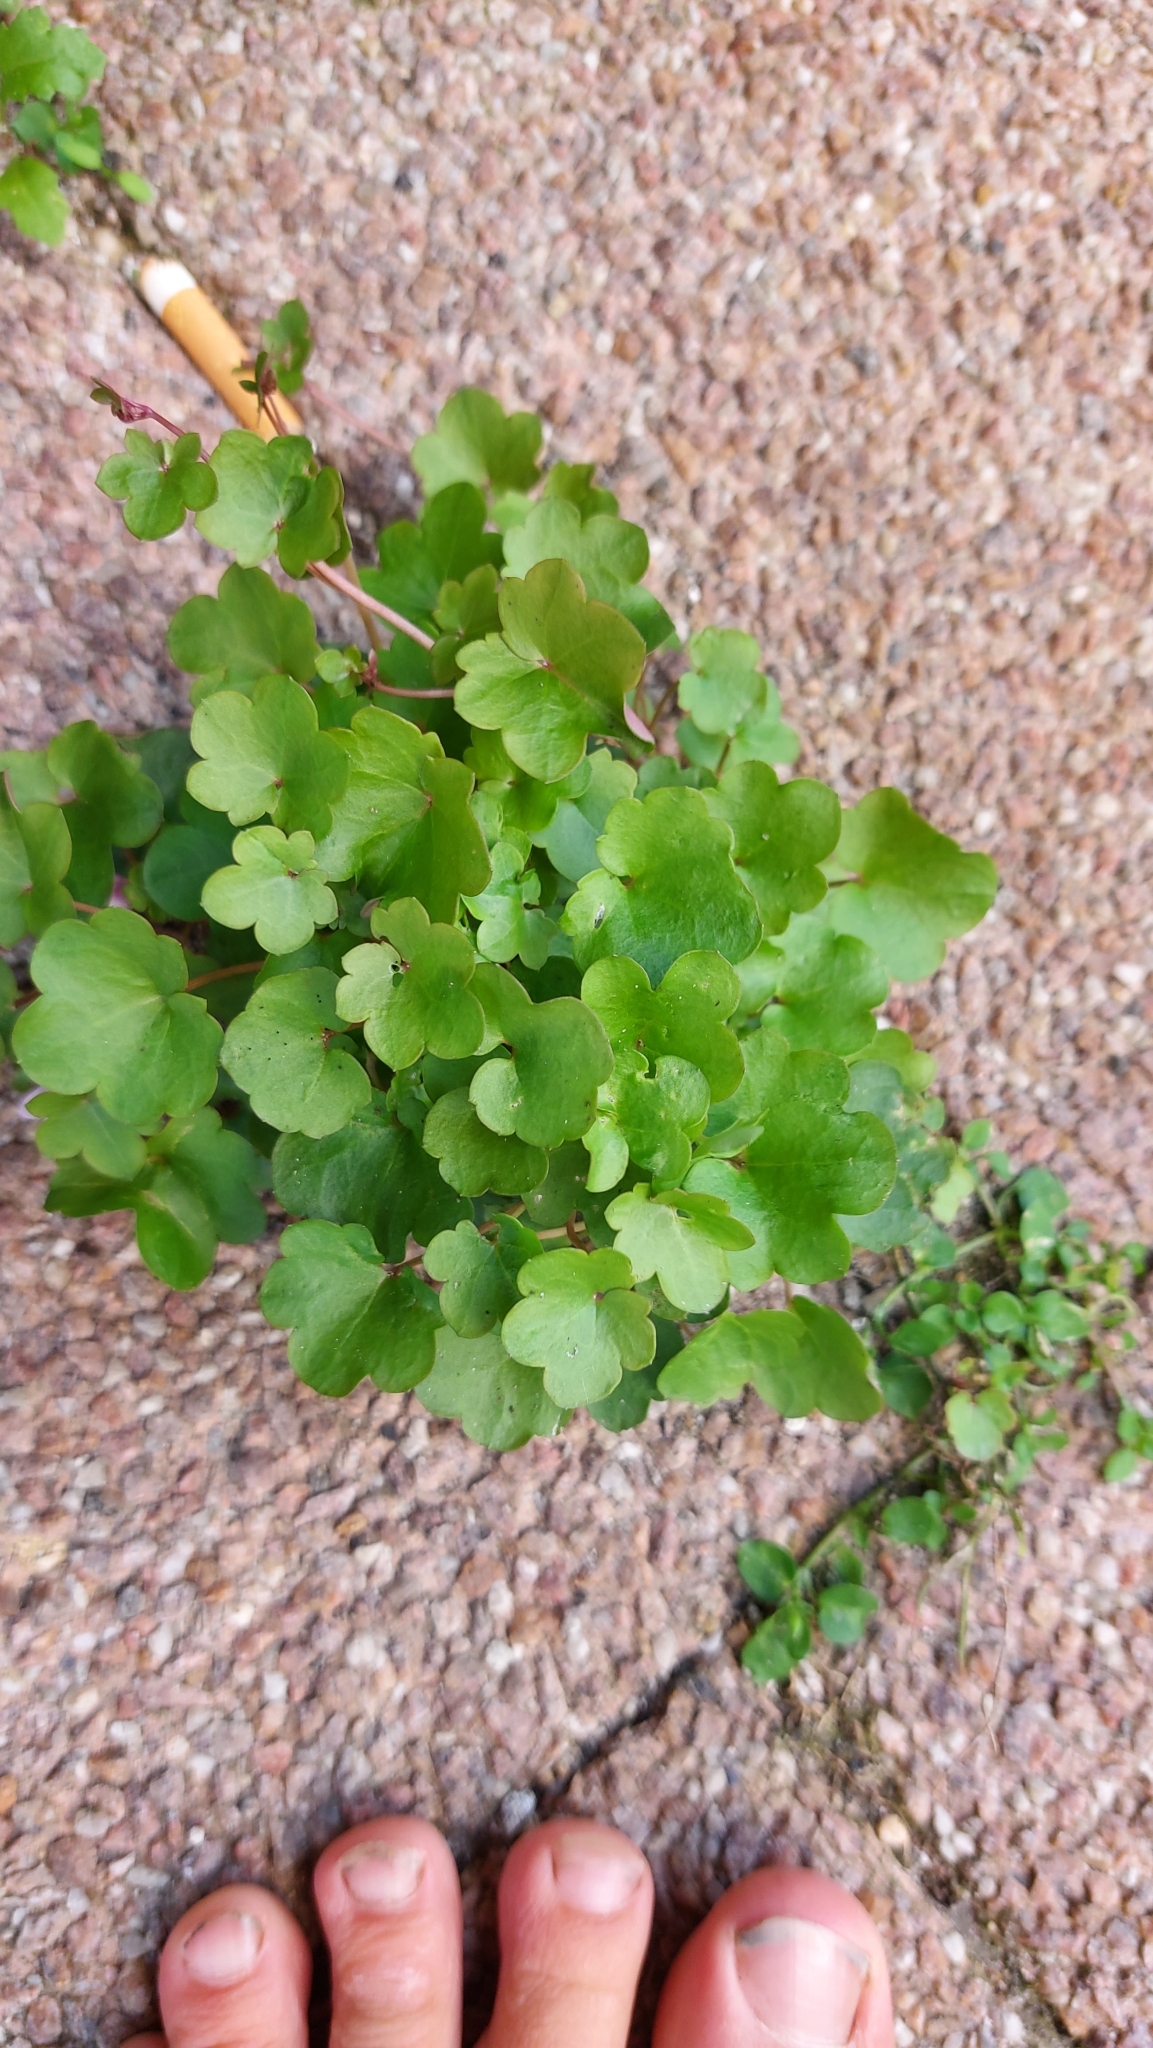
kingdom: Plantae
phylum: Tracheophyta
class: Magnoliopsida
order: Lamiales
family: Plantaginaceae
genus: Cymbalaria
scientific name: Cymbalaria muralis
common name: Ivy-leaved toadflax
